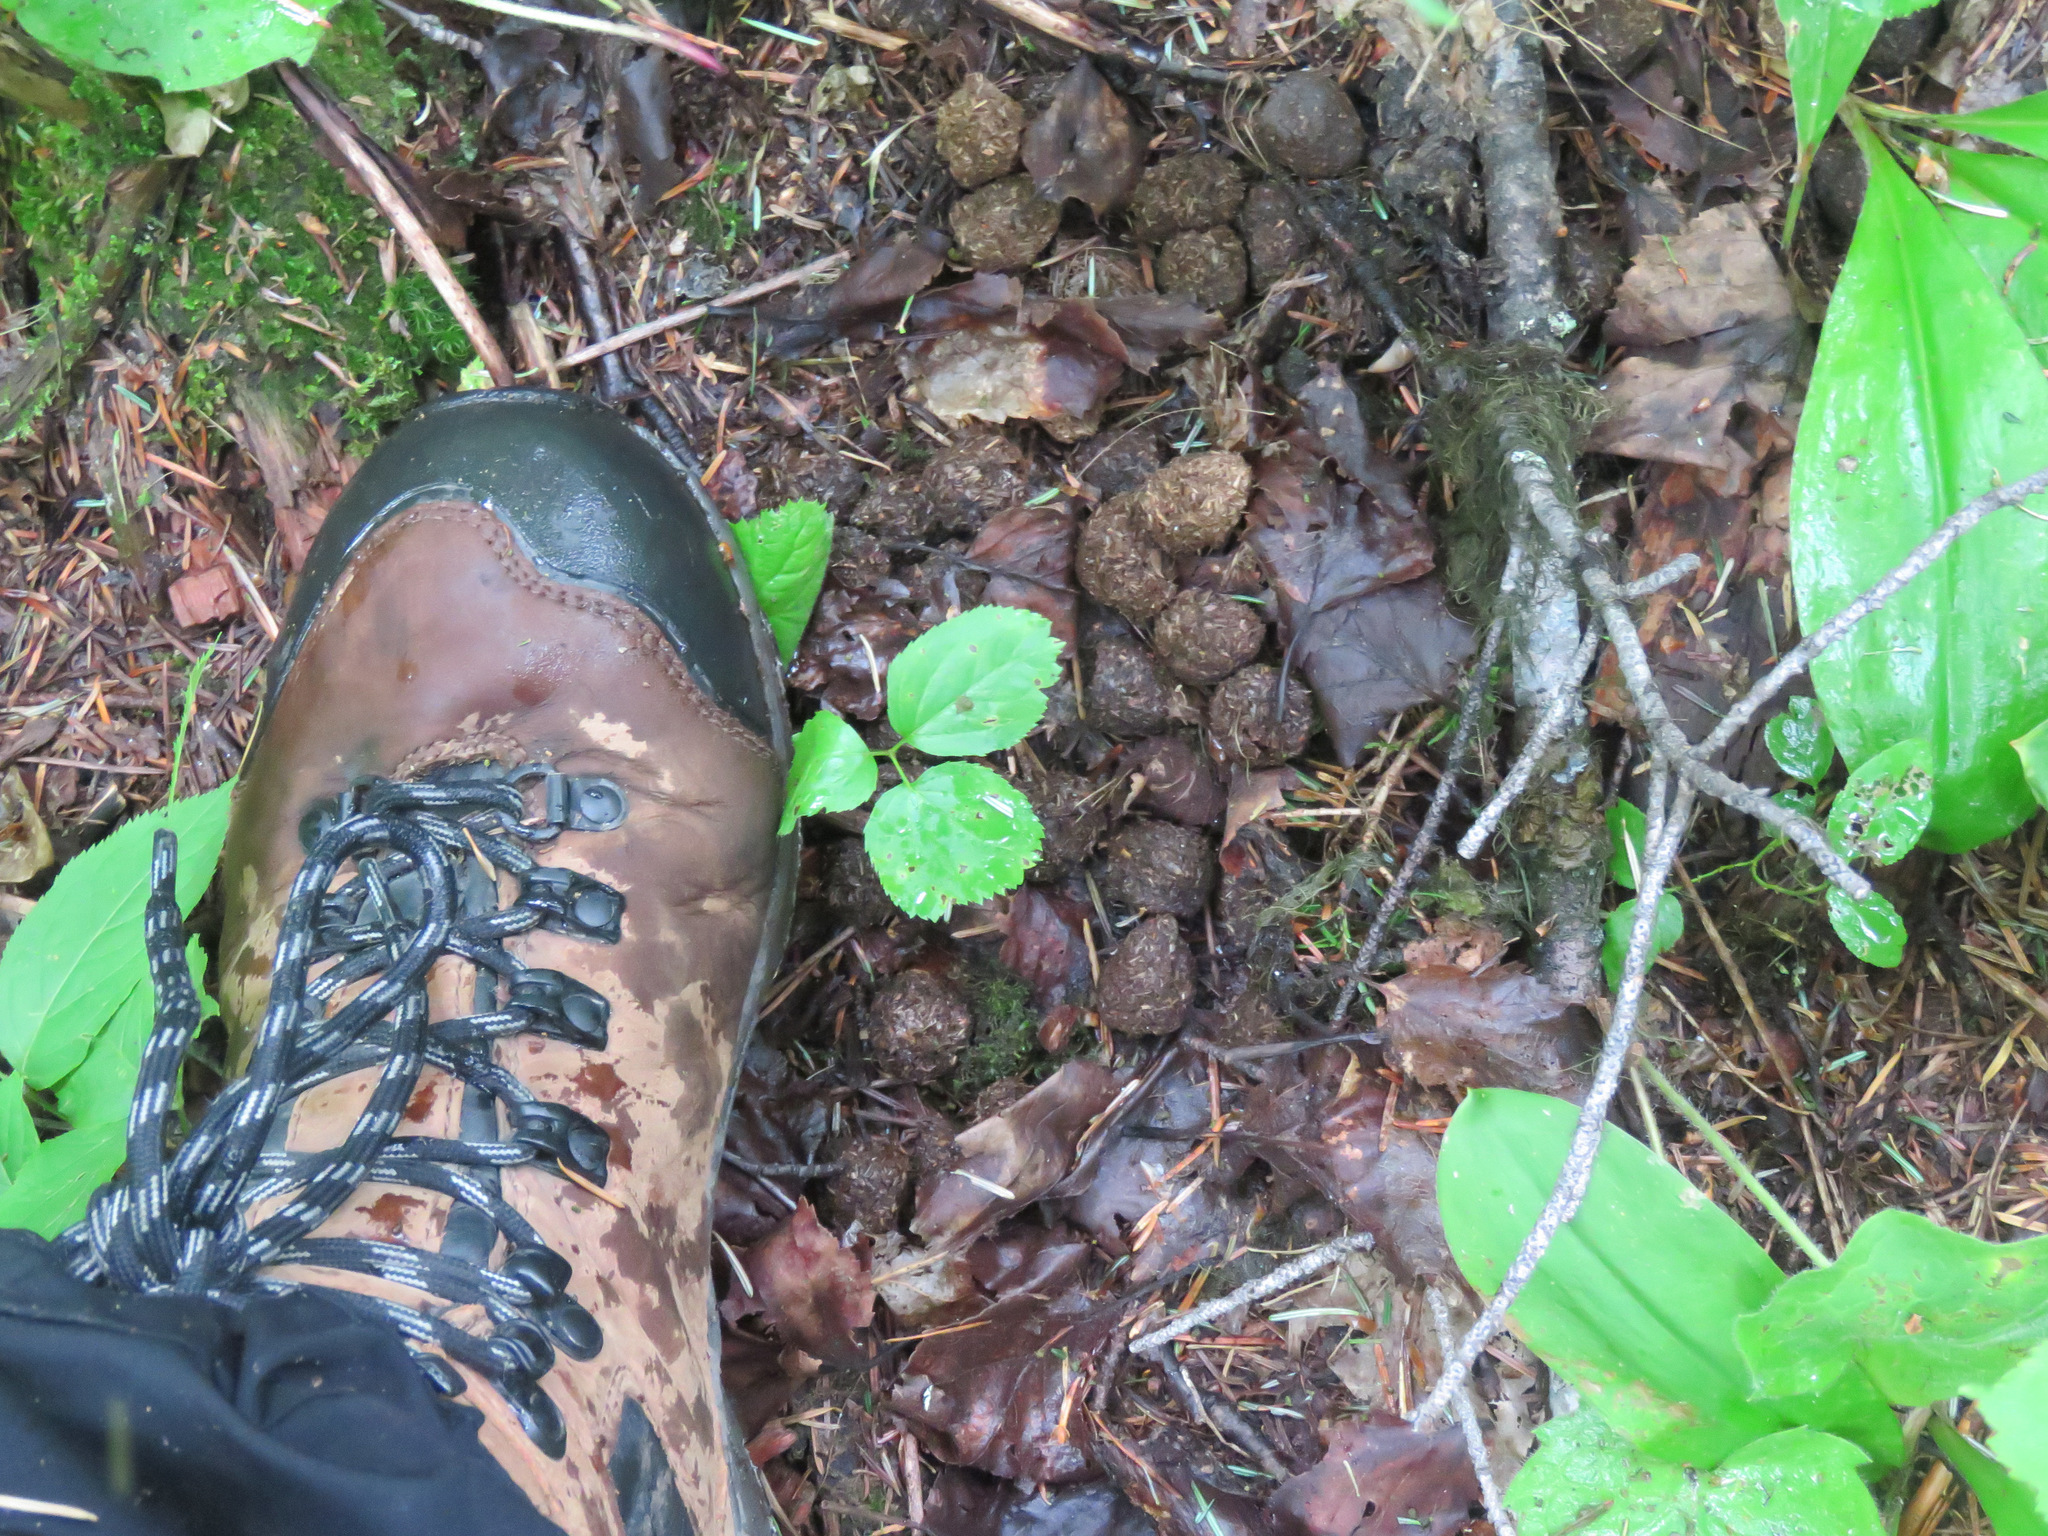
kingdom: Animalia
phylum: Chordata
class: Mammalia
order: Artiodactyla
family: Cervidae
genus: Alces
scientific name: Alces alces
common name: Moose
